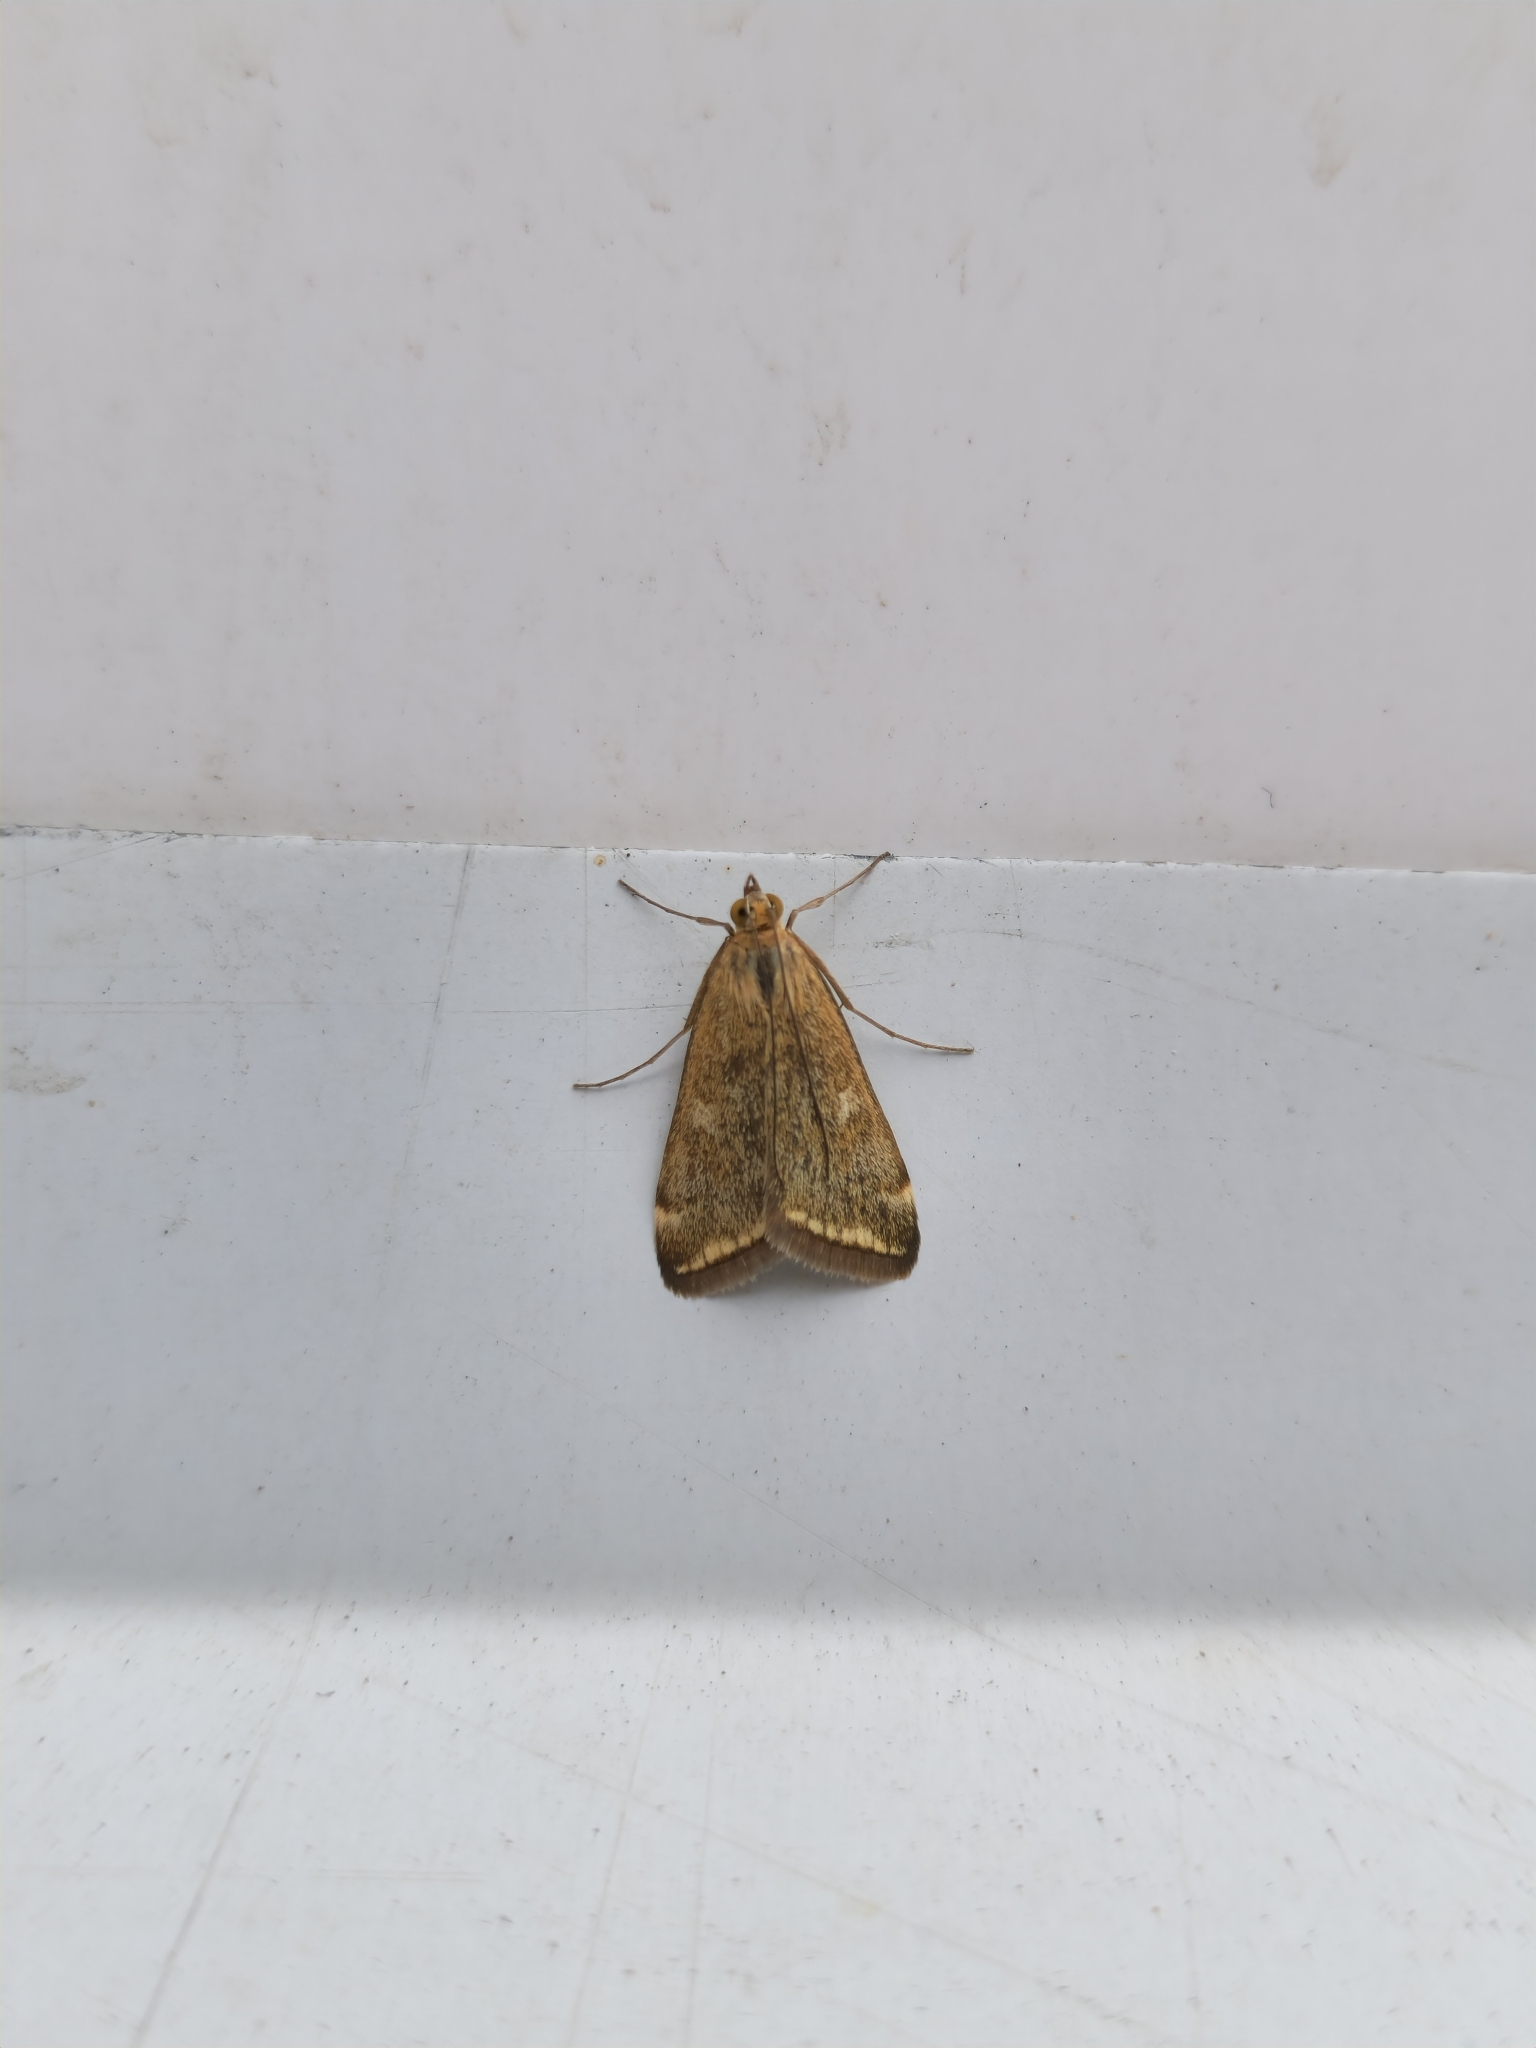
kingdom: Animalia
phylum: Arthropoda
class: Insecta
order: Lepidoptera
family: Crambidae
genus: Loxostege
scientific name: Loxostege sticticalis
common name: Crambid moth
